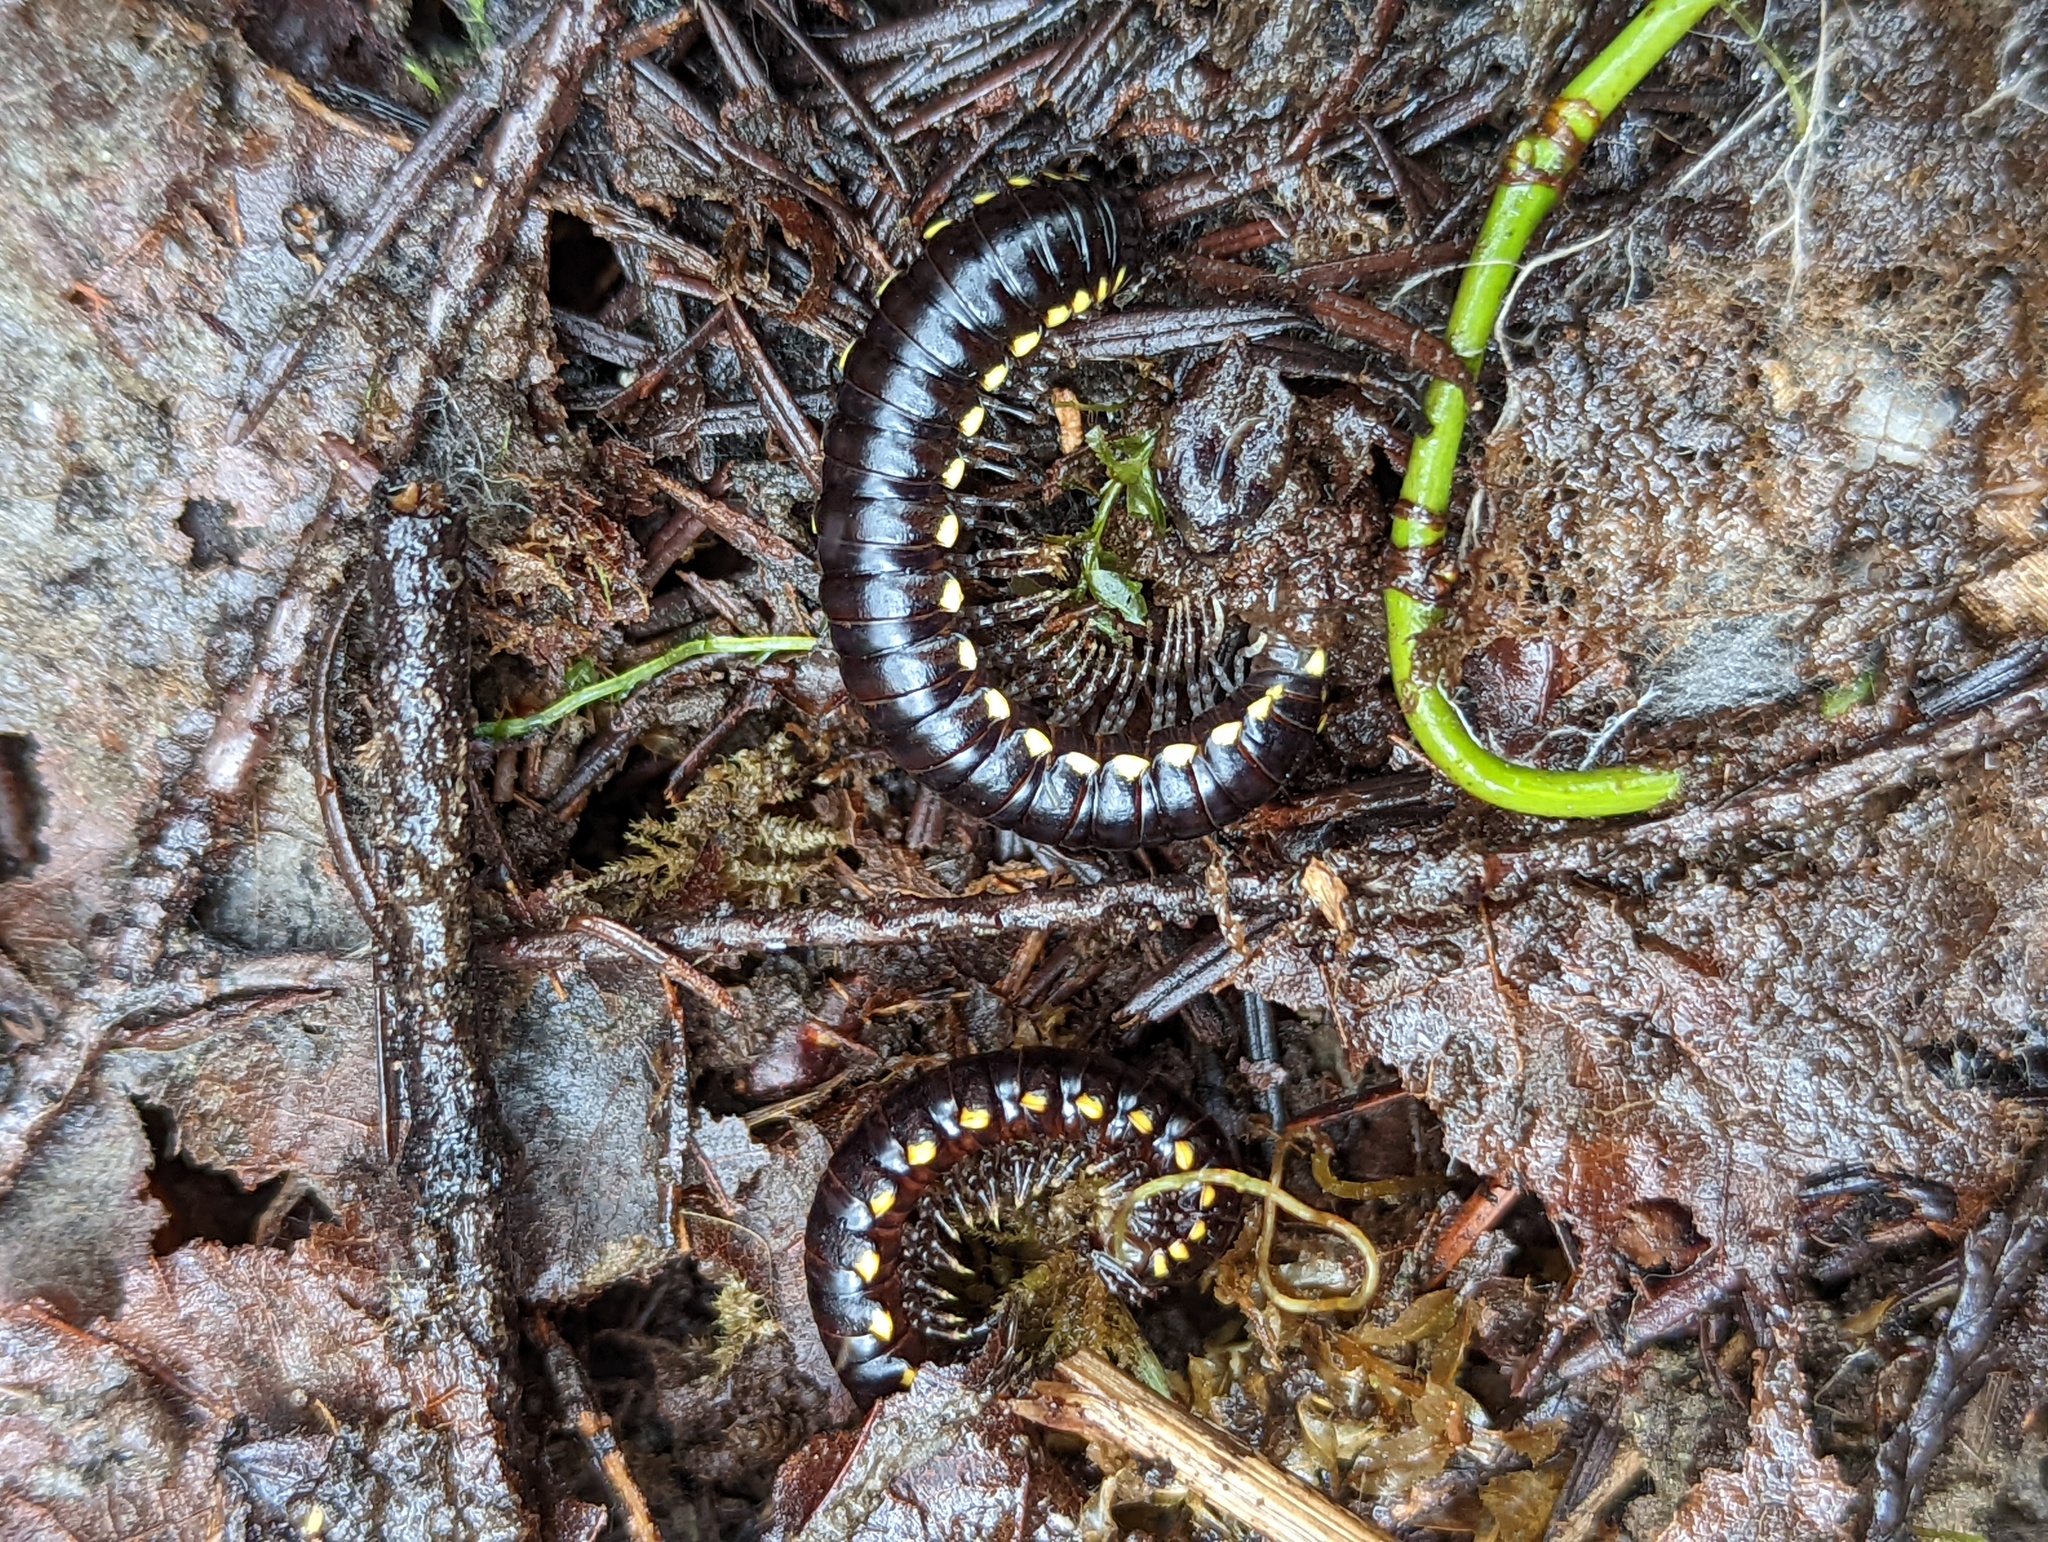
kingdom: Animalia
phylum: Arthropoda
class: Diplopoda
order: Polydesmida
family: Xystodesmidae
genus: Harpaphe
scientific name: Harpaphe haydeniana
